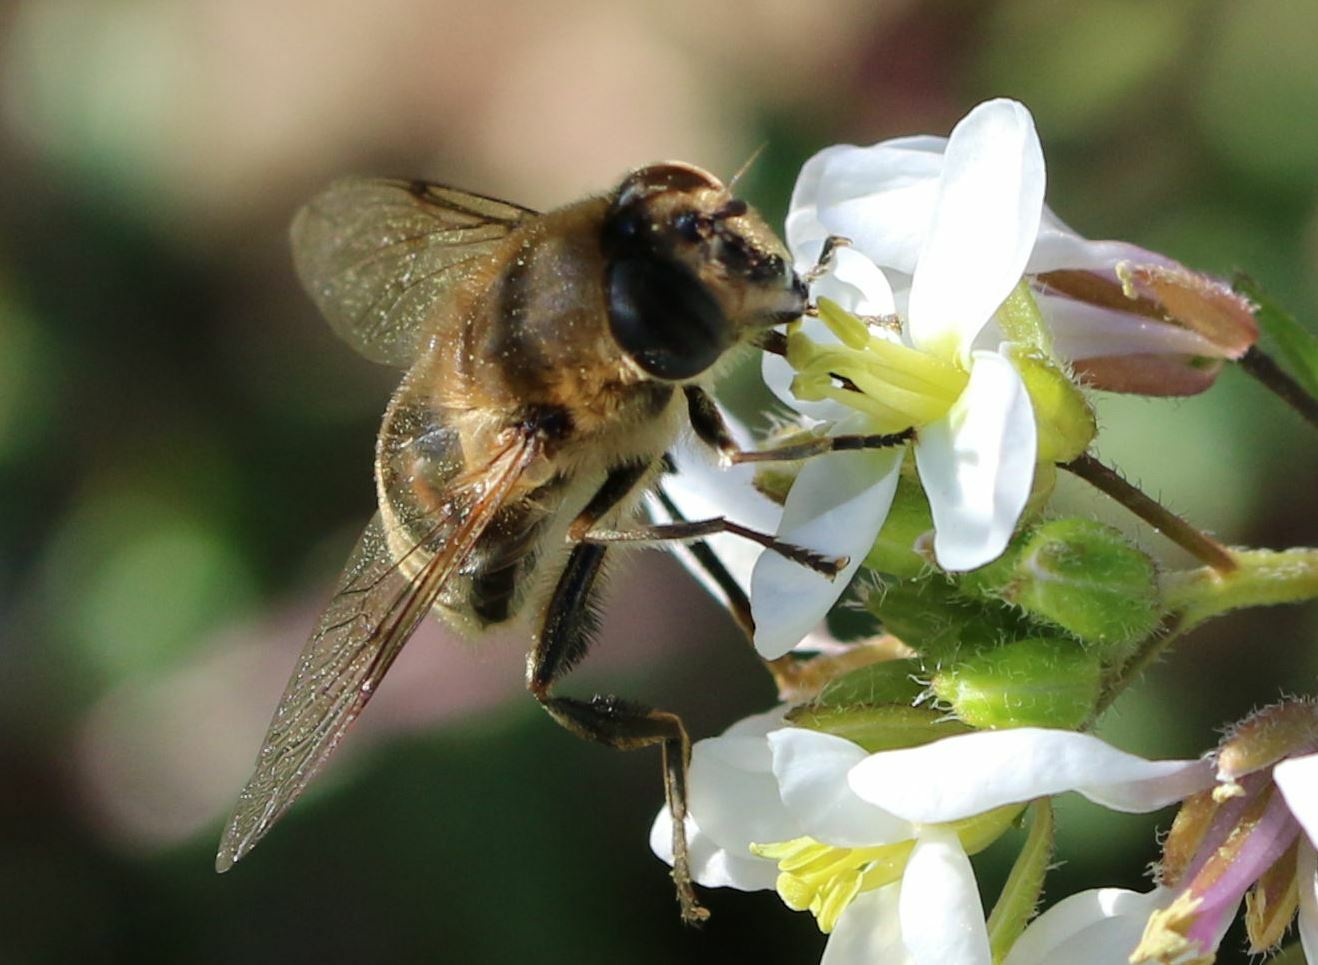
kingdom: Animalia
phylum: Arthropoda
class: Insecta
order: Diptera
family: Syrphidae
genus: Eristalis
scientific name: Eristalis tenax
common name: Drone fly
